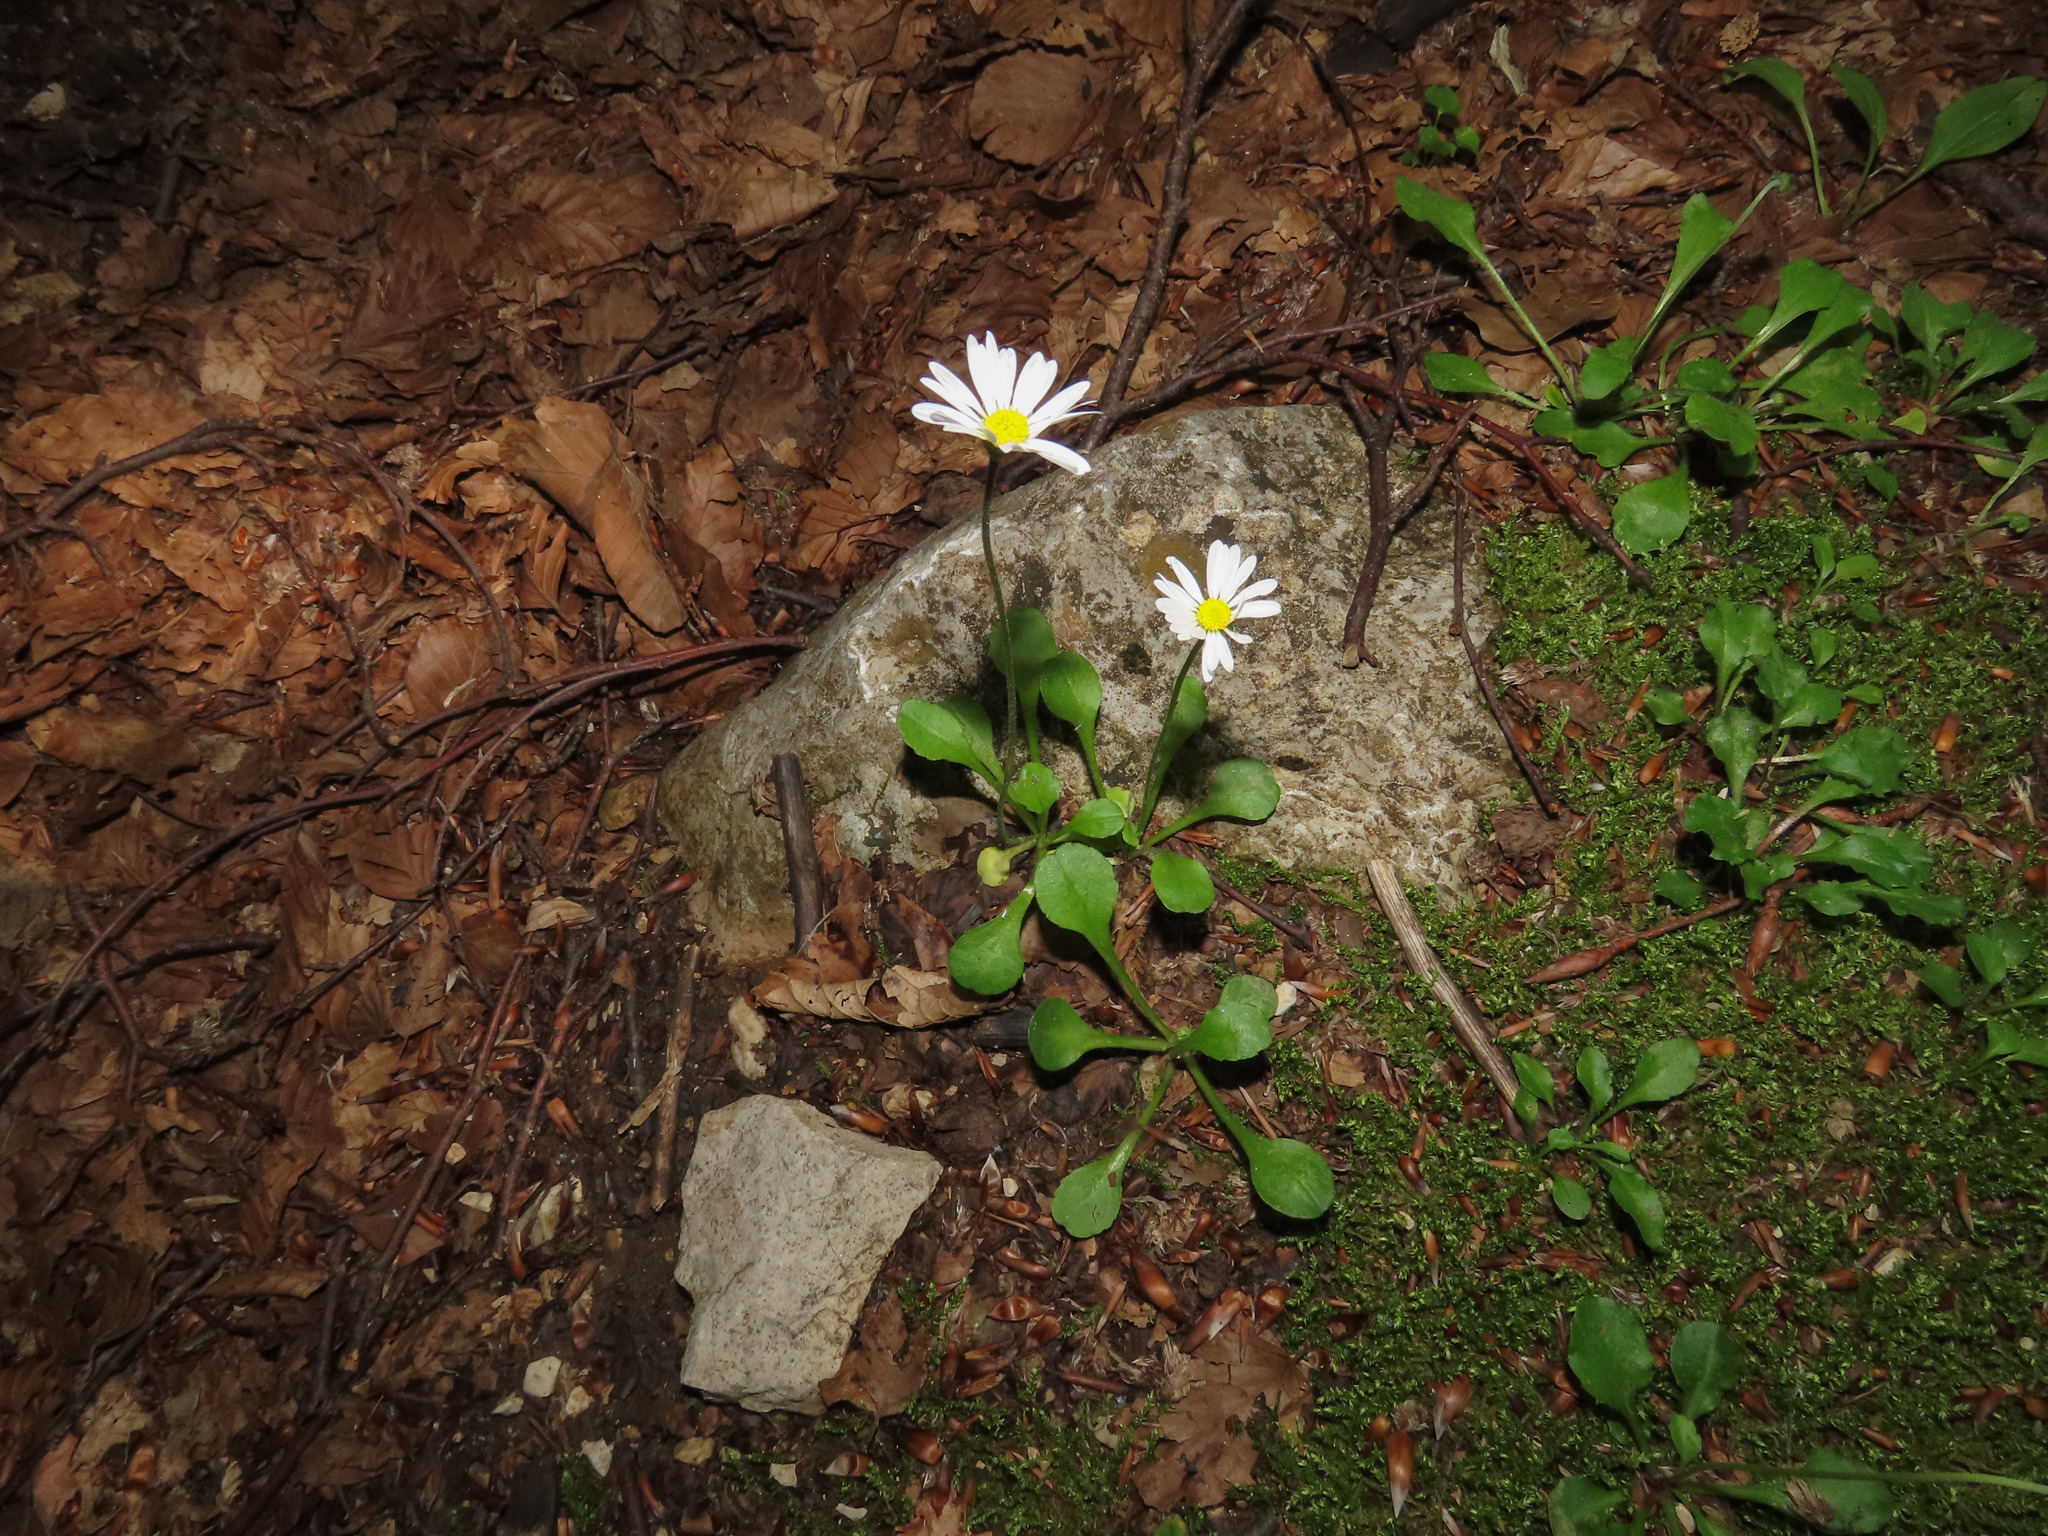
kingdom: Plantae
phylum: Tracheophyta
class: Magnoliopsida
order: Asterales
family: Asteraceae
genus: Bellis
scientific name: Bellis perennis
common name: Lawndaisy
